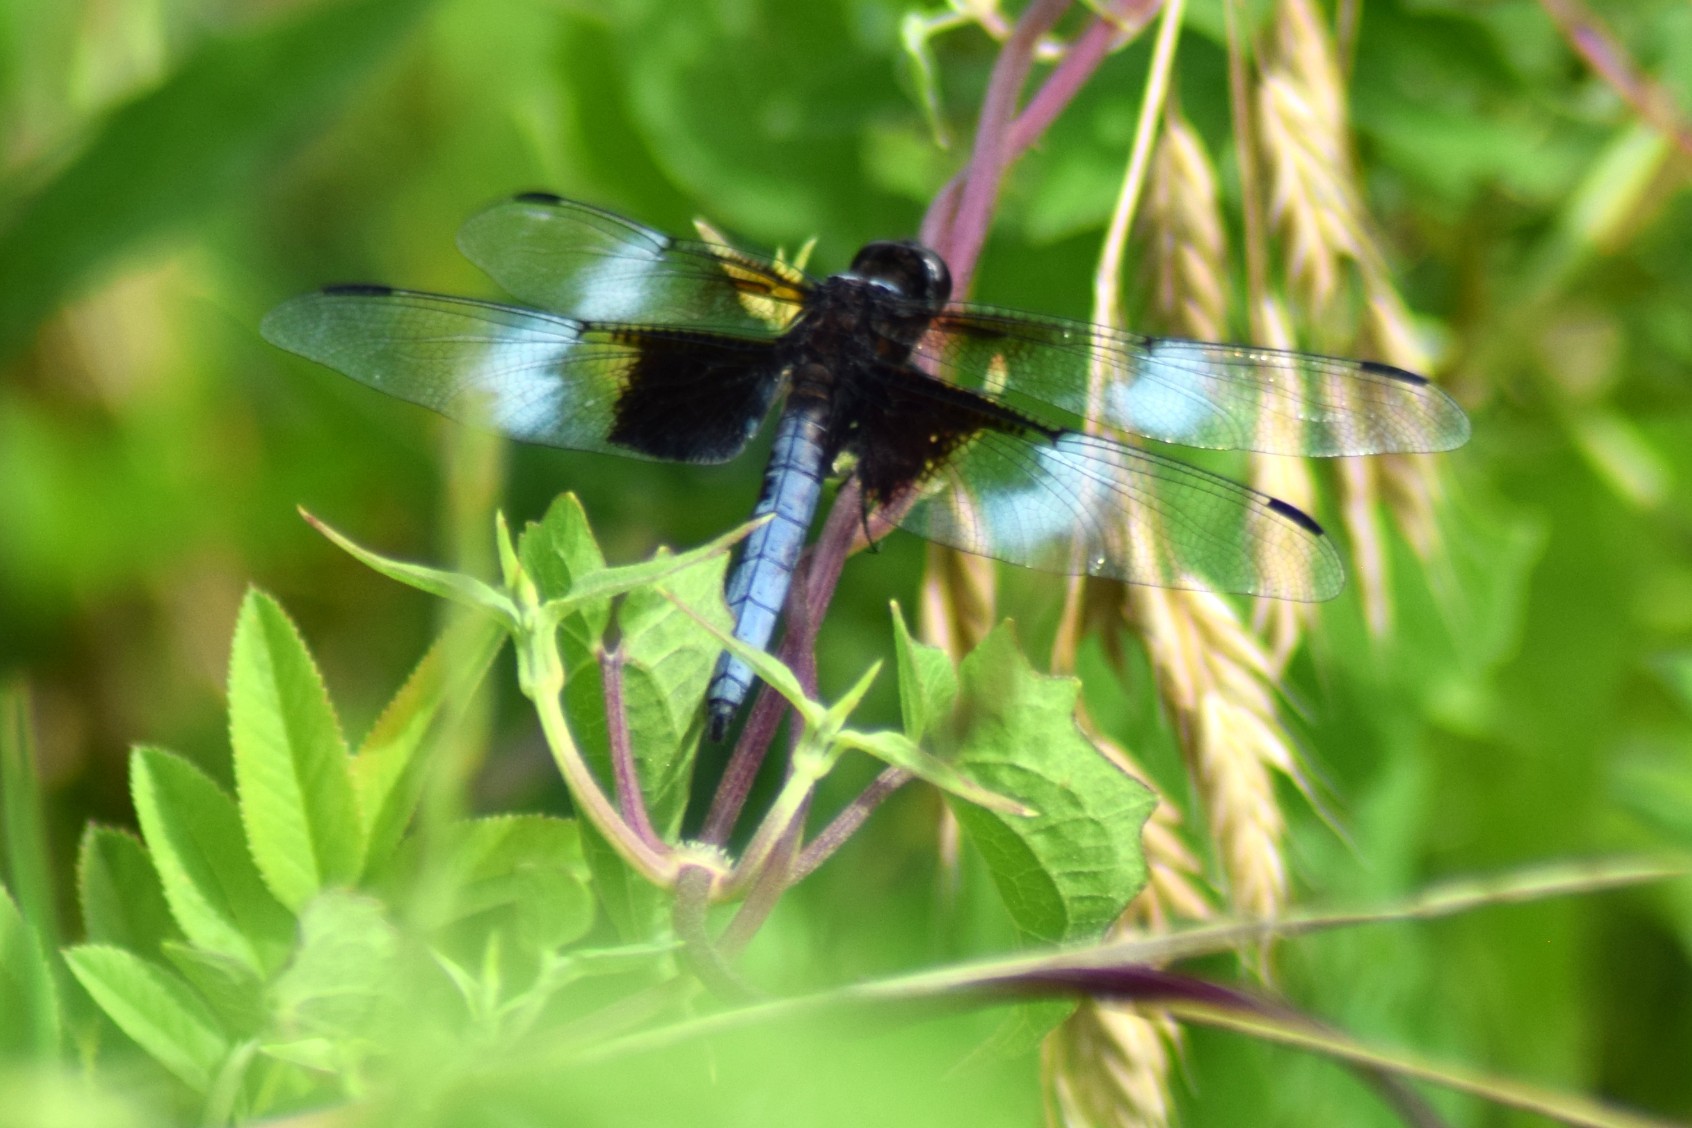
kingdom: Animalia
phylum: Arthropoda
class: Insecta
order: Odonata
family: Libellulidae
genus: Libellula
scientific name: Libellula luctuosa
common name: Widow skimmer
